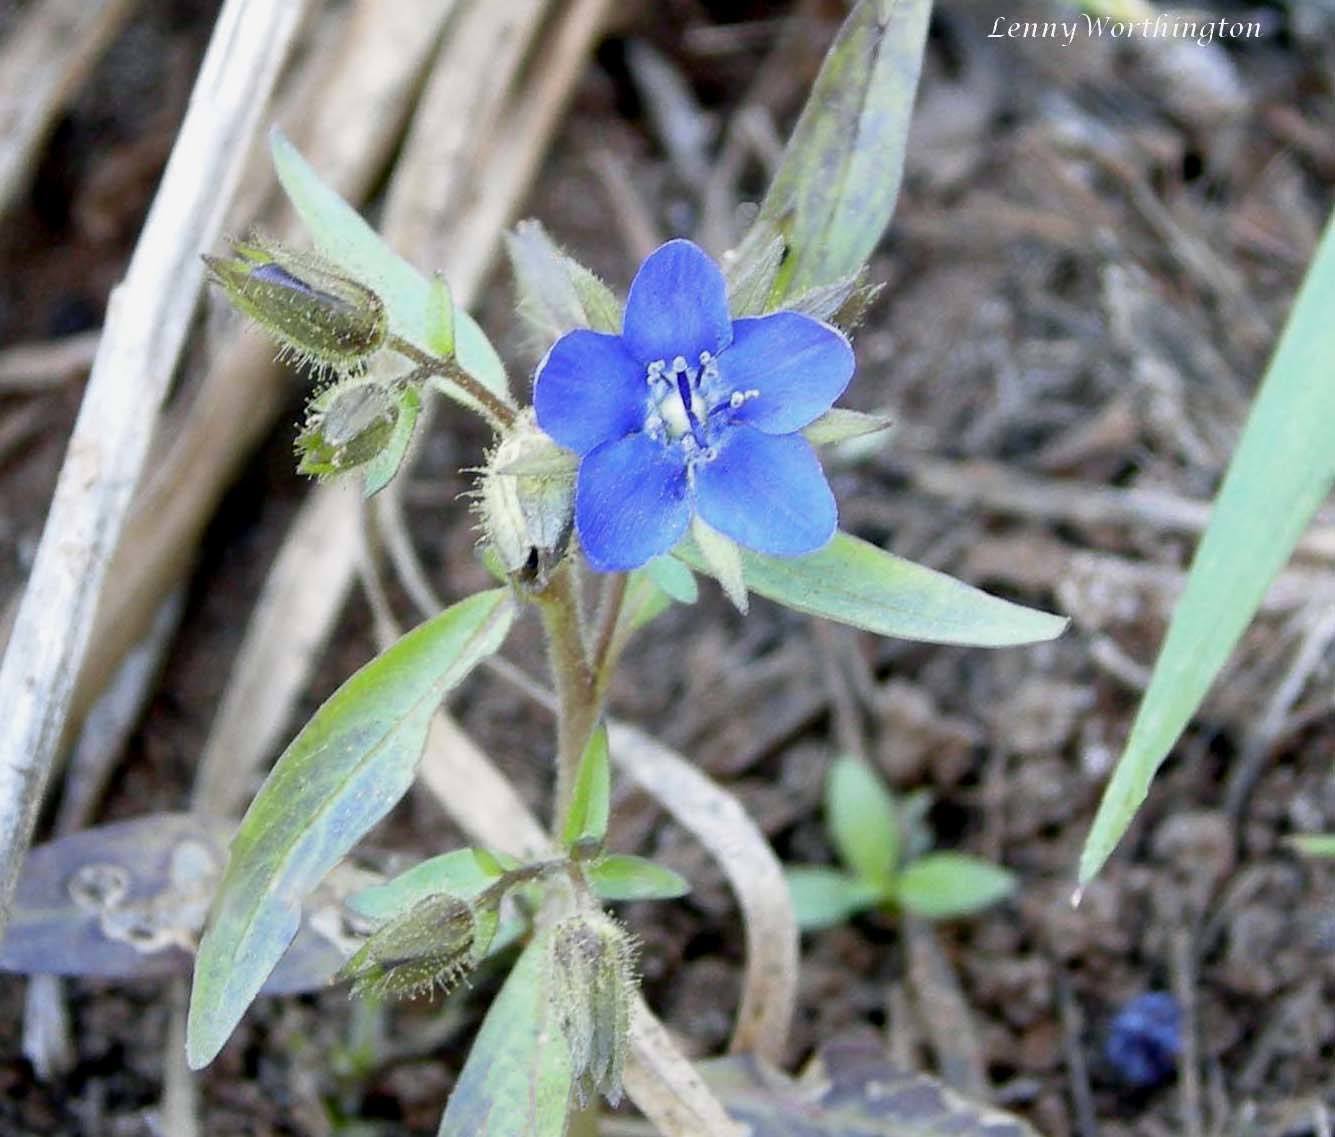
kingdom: Plantae
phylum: Tracheophyta
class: Magnoliopsida
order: Solanales
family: Hydroleaceae
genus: Hydrolea
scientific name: Hydrolea zeylanica
